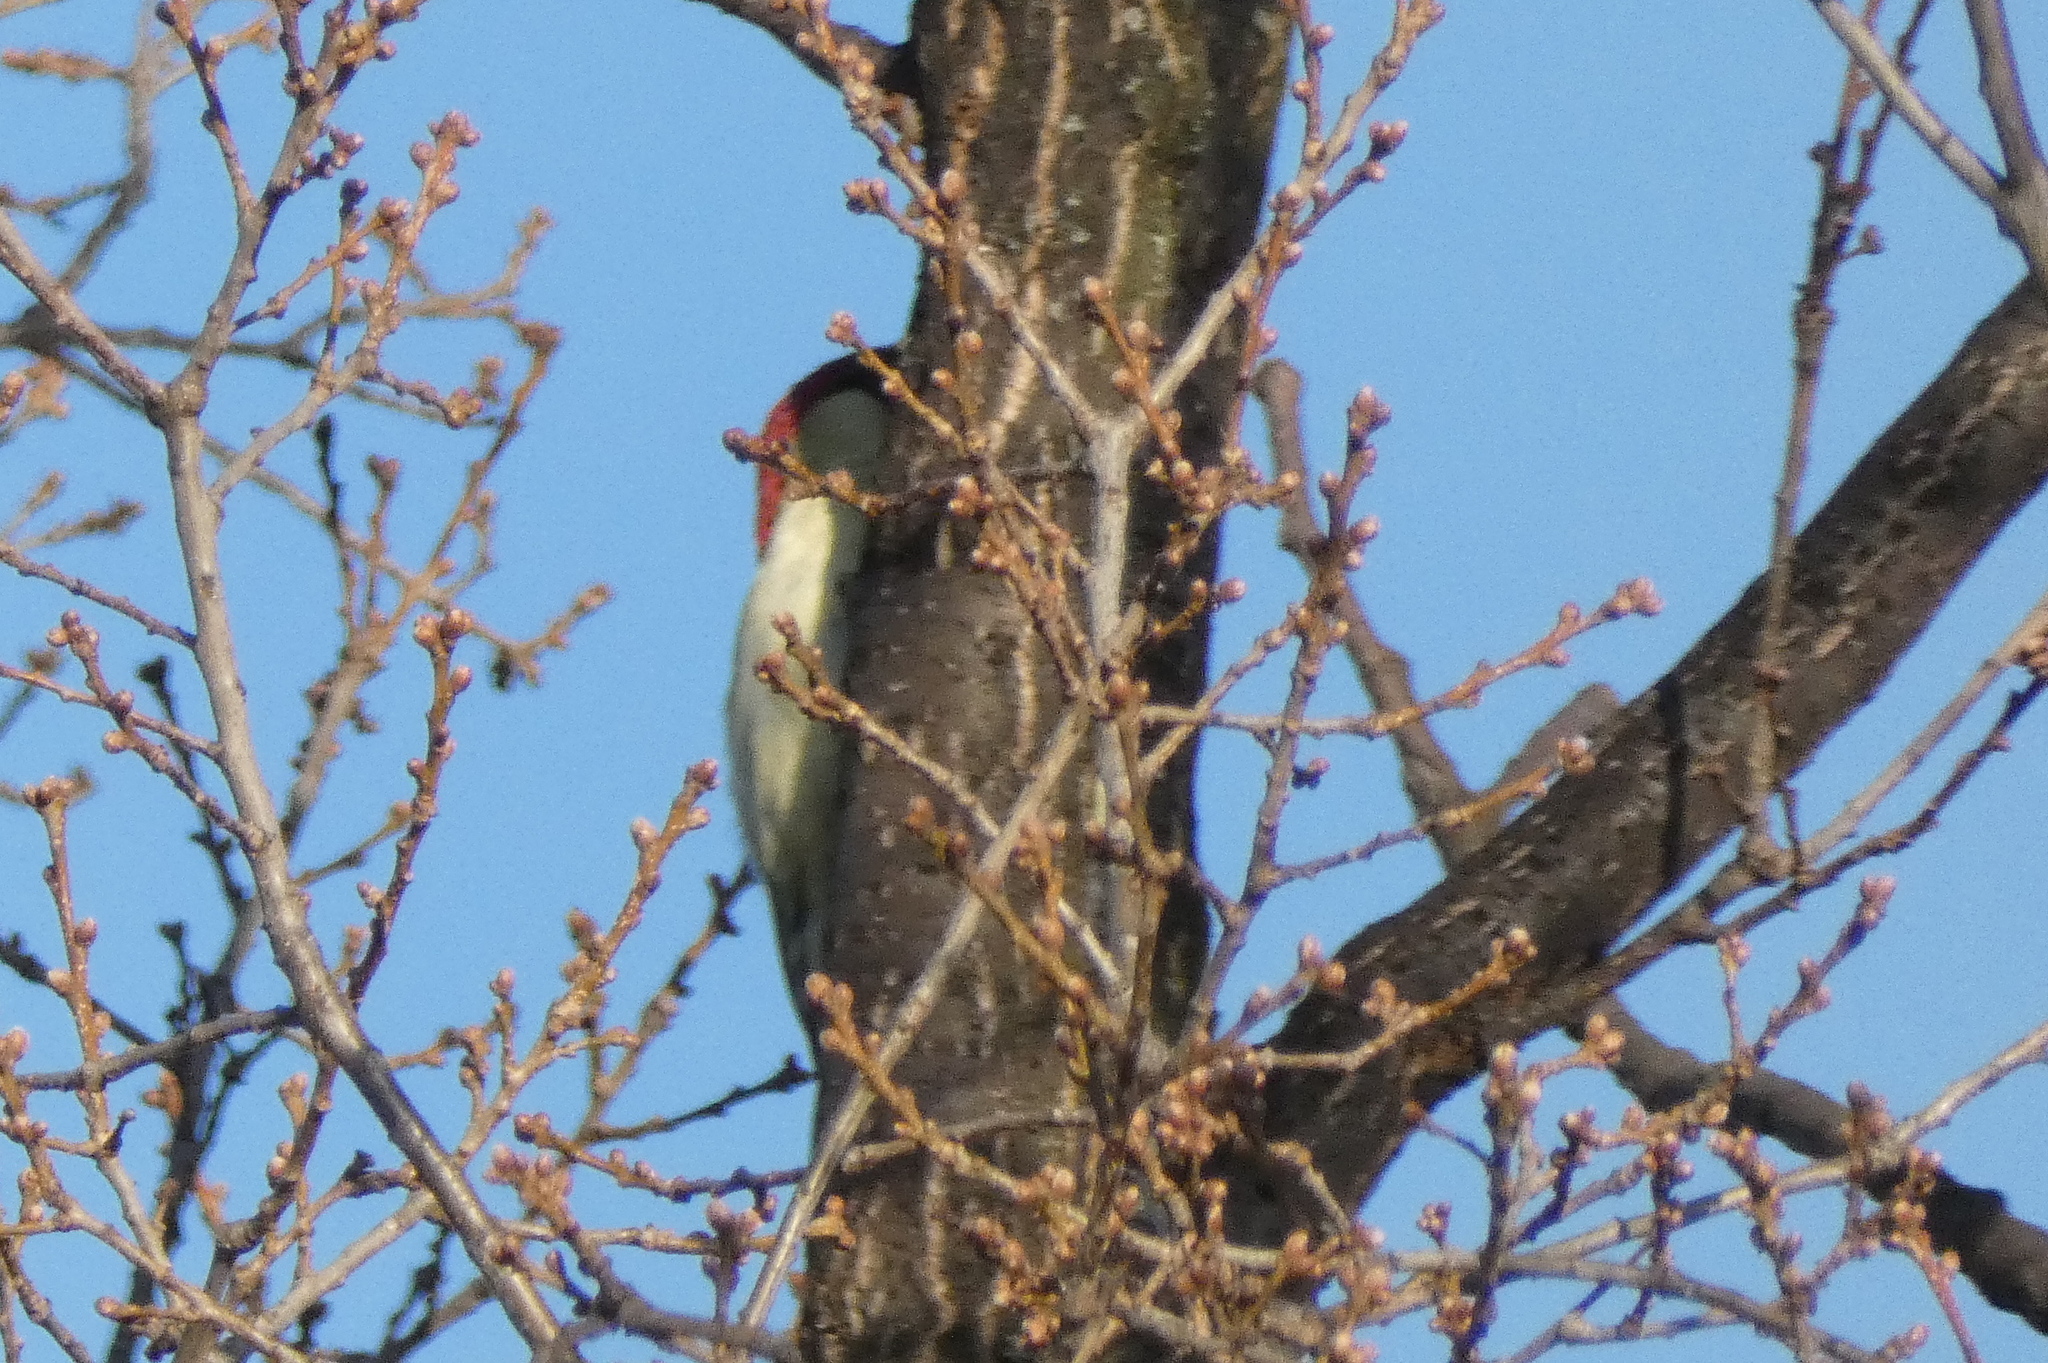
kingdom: Animalia
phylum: Chordata
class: Aves
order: Piciformes
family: Picidae
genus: Picus
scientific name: Picus viridis
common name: European green woodpecker
